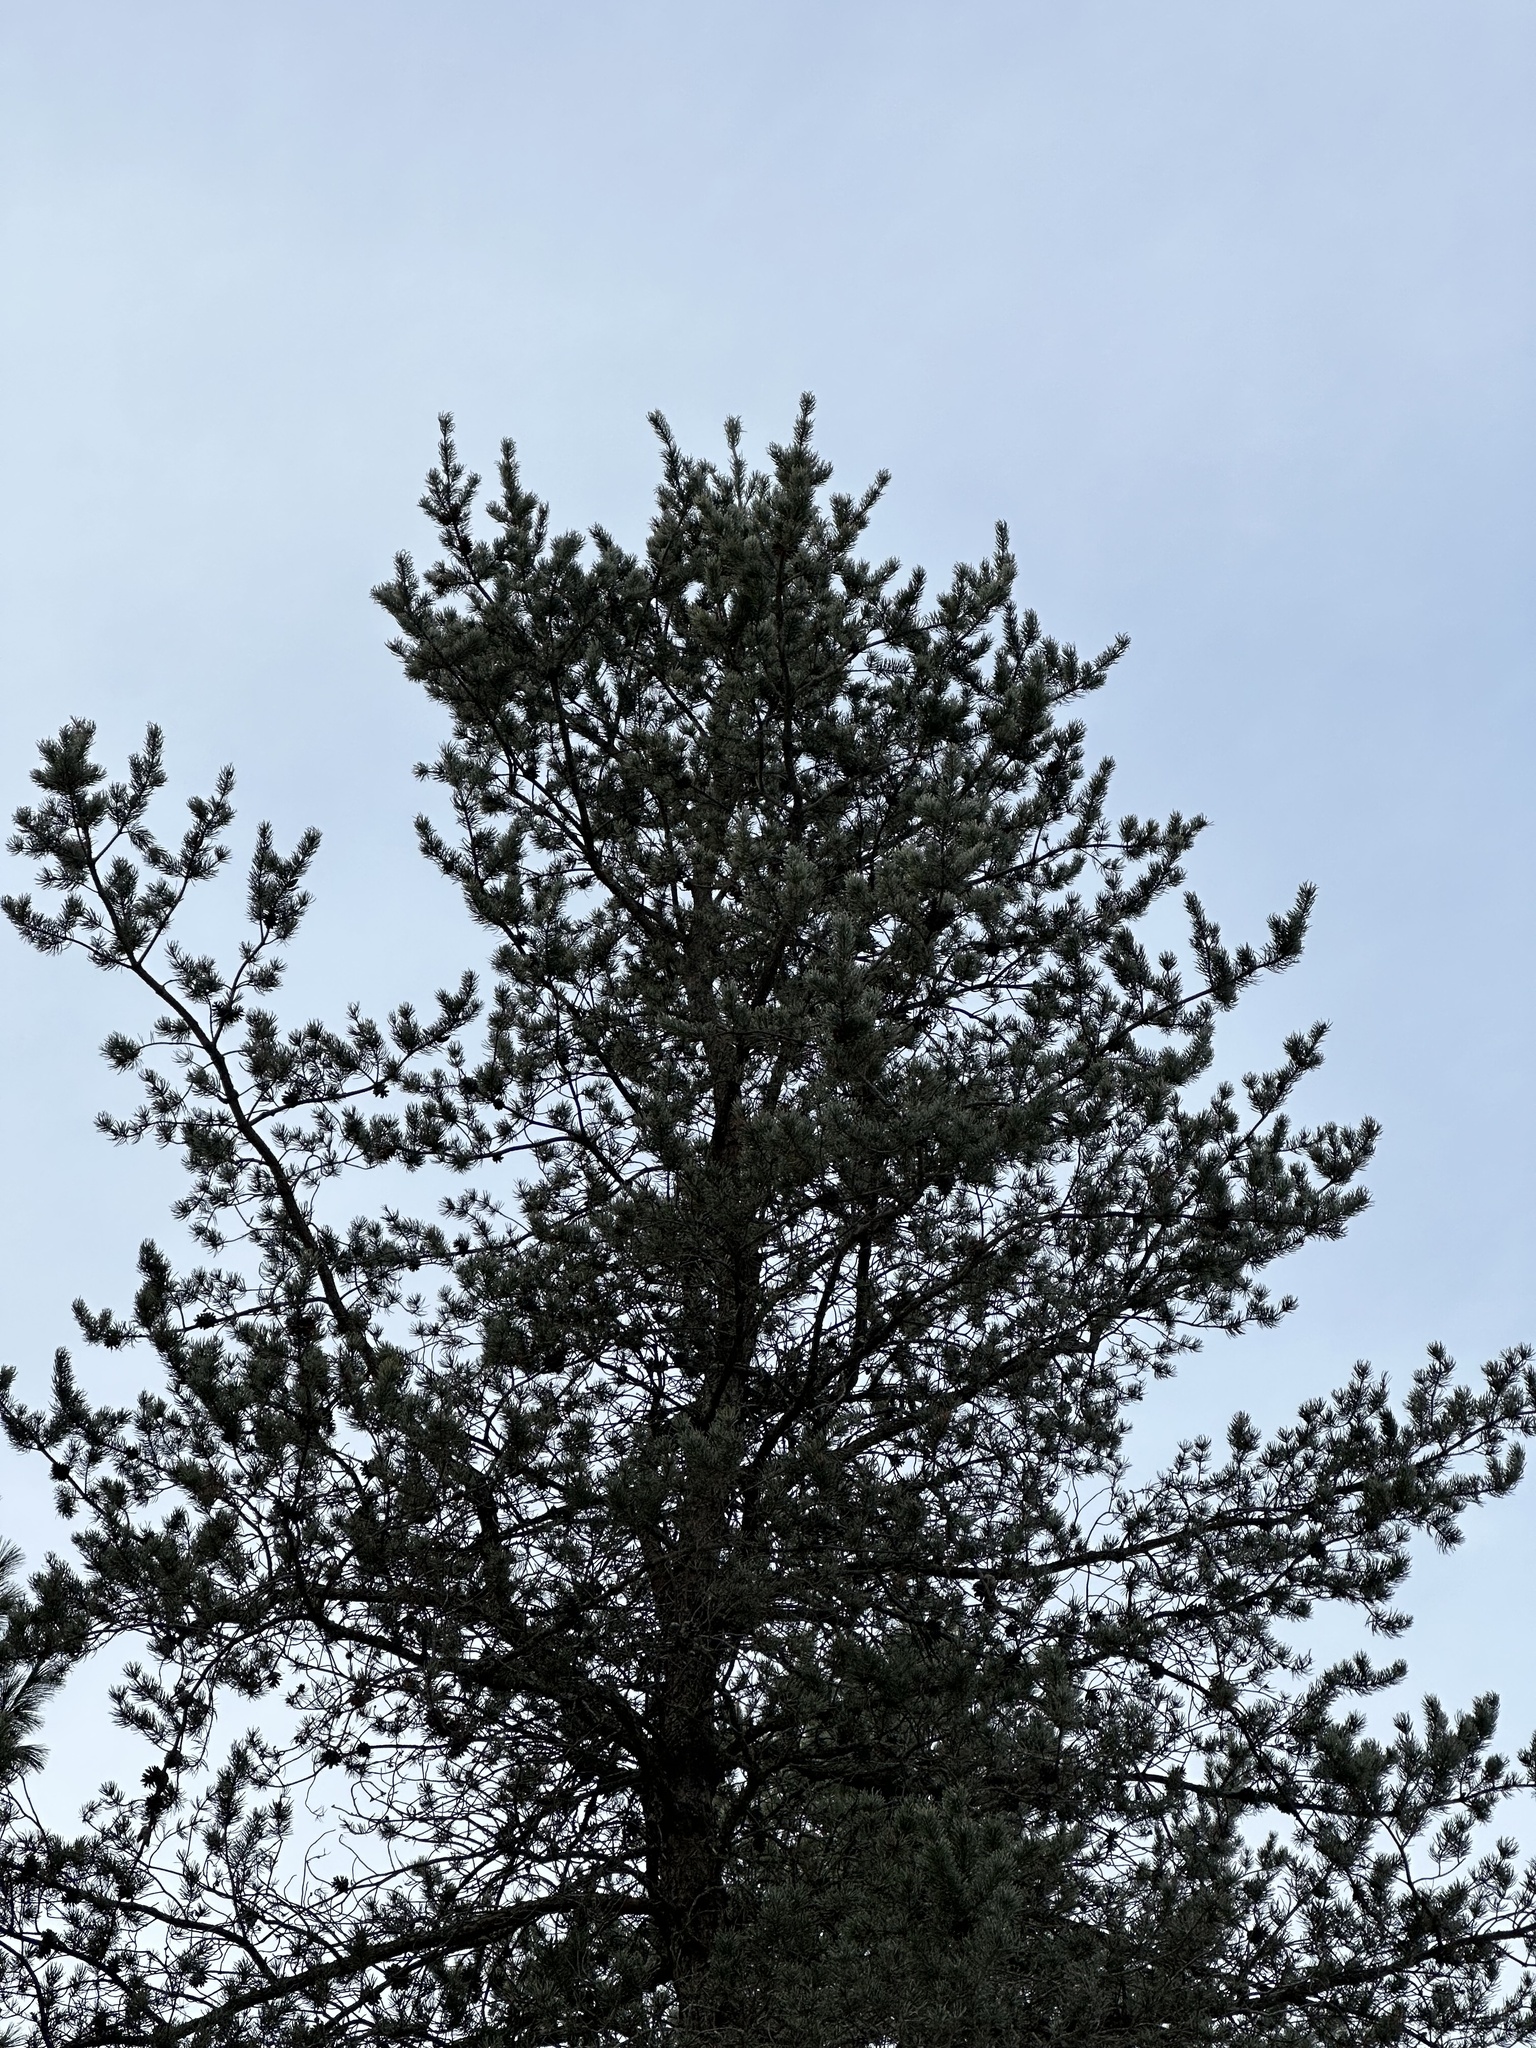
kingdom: Plantae
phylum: Tracheophyta
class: Pinopsida
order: Pinales
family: Pinaceae
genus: Pinus
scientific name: Pinus banksiana
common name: Jack pine
